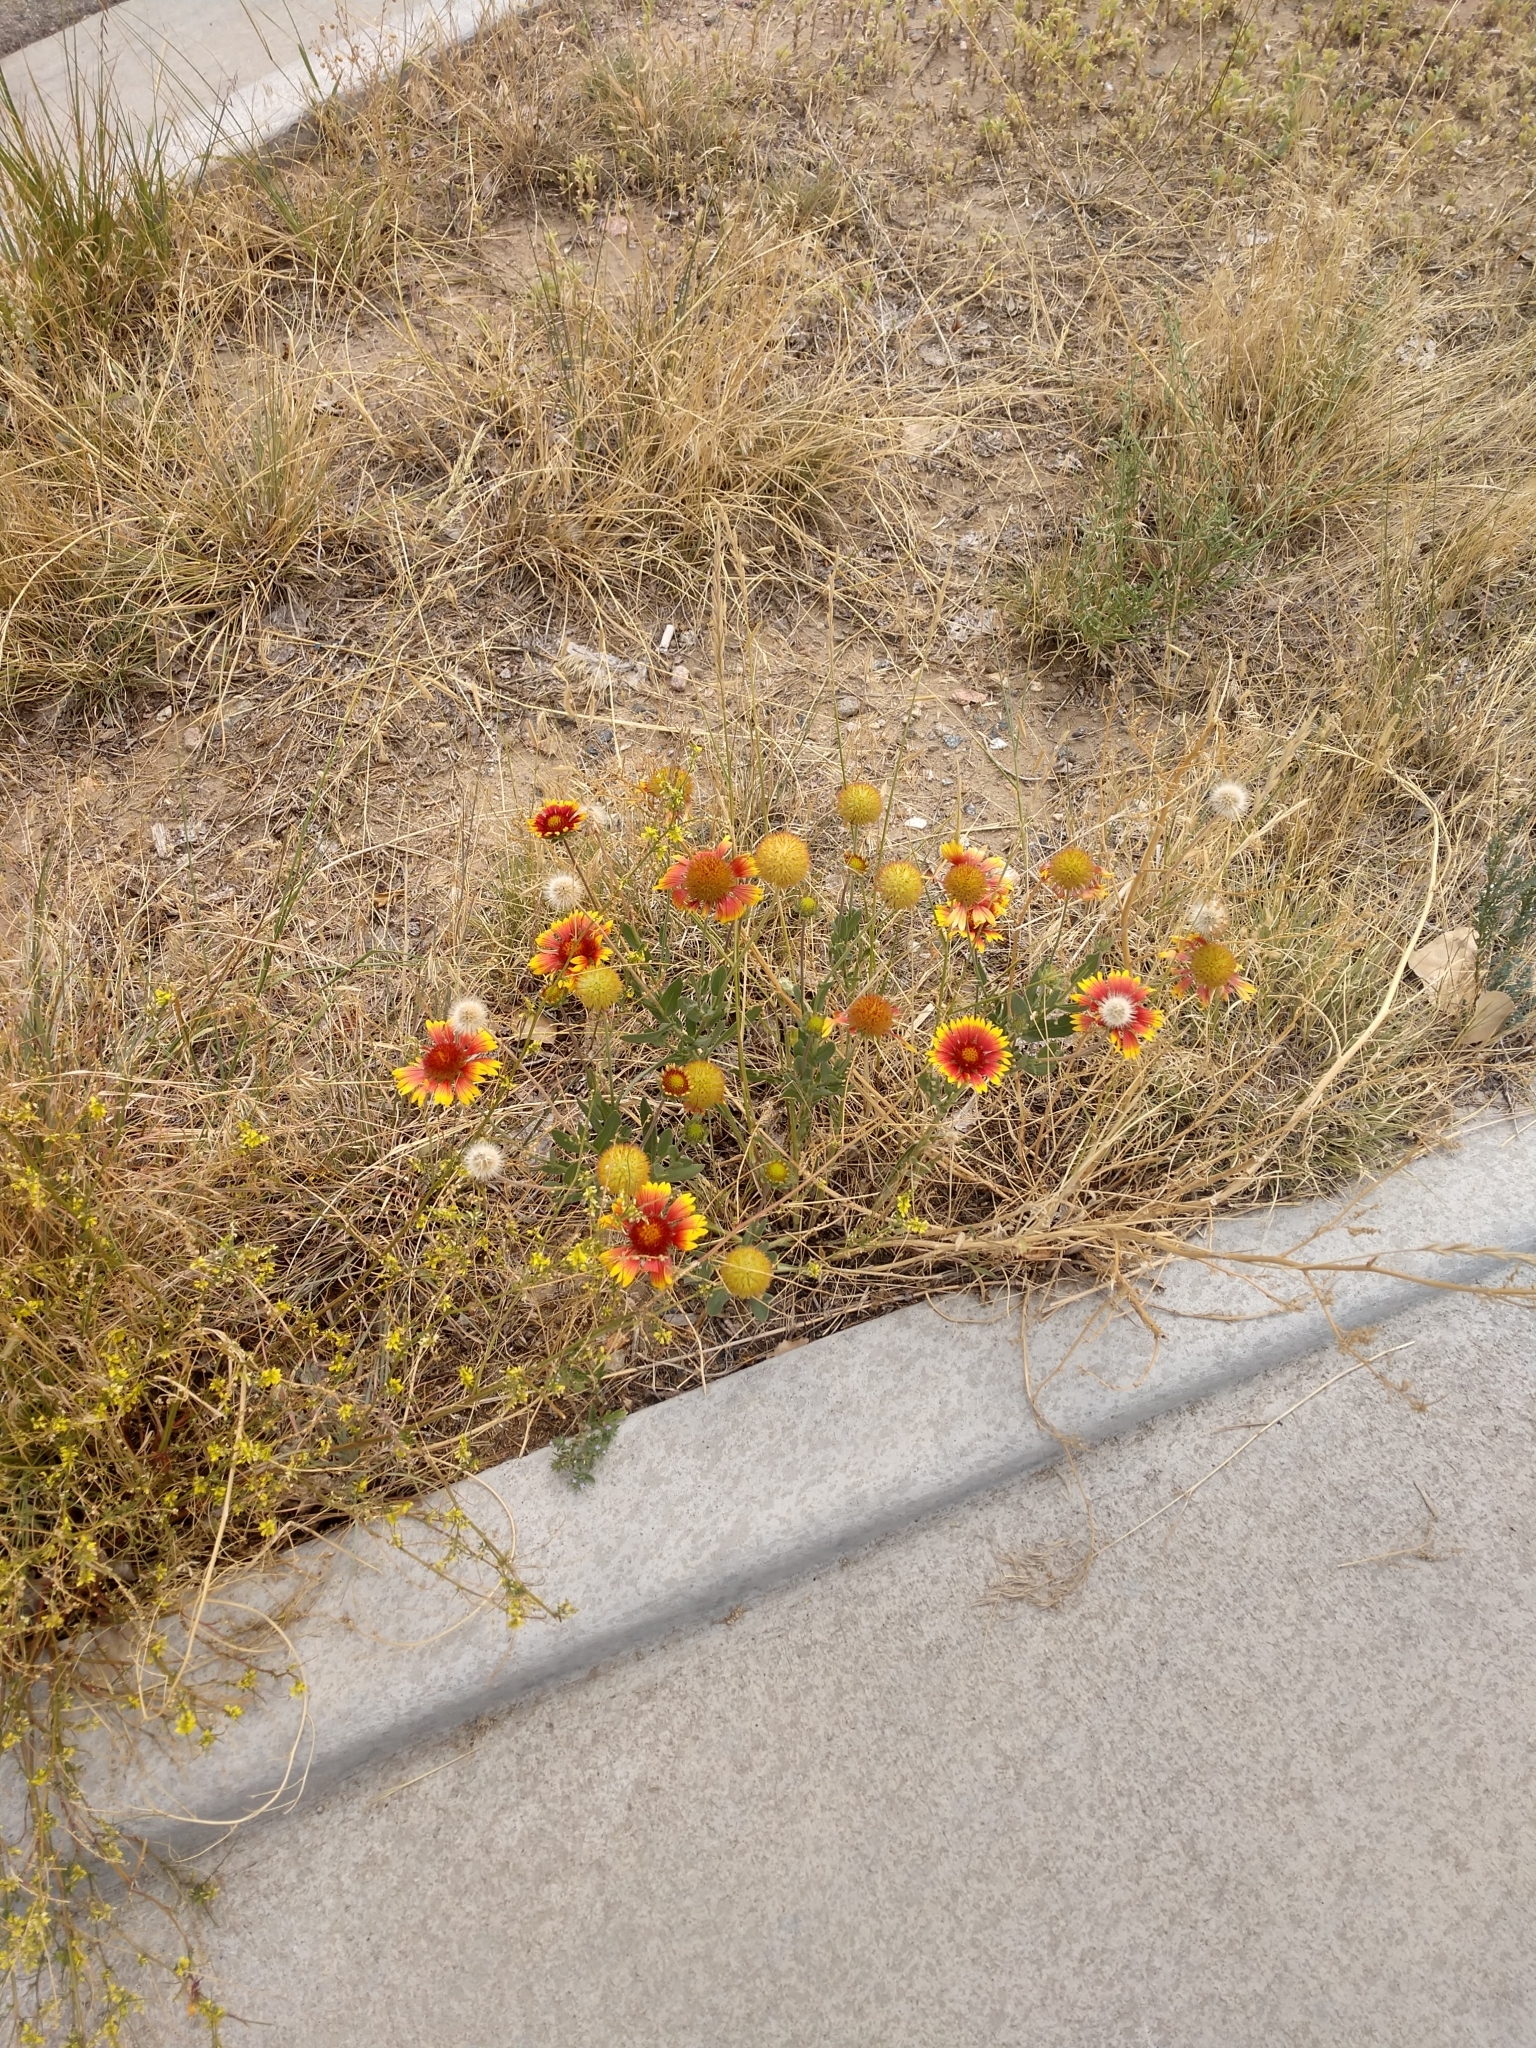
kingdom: Plantae
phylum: Tracheophyta
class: Magnoliopsida
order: Asterales
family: Asteraceae
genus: Gaillardia
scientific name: Gaillardia pulchella
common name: Firewheel
